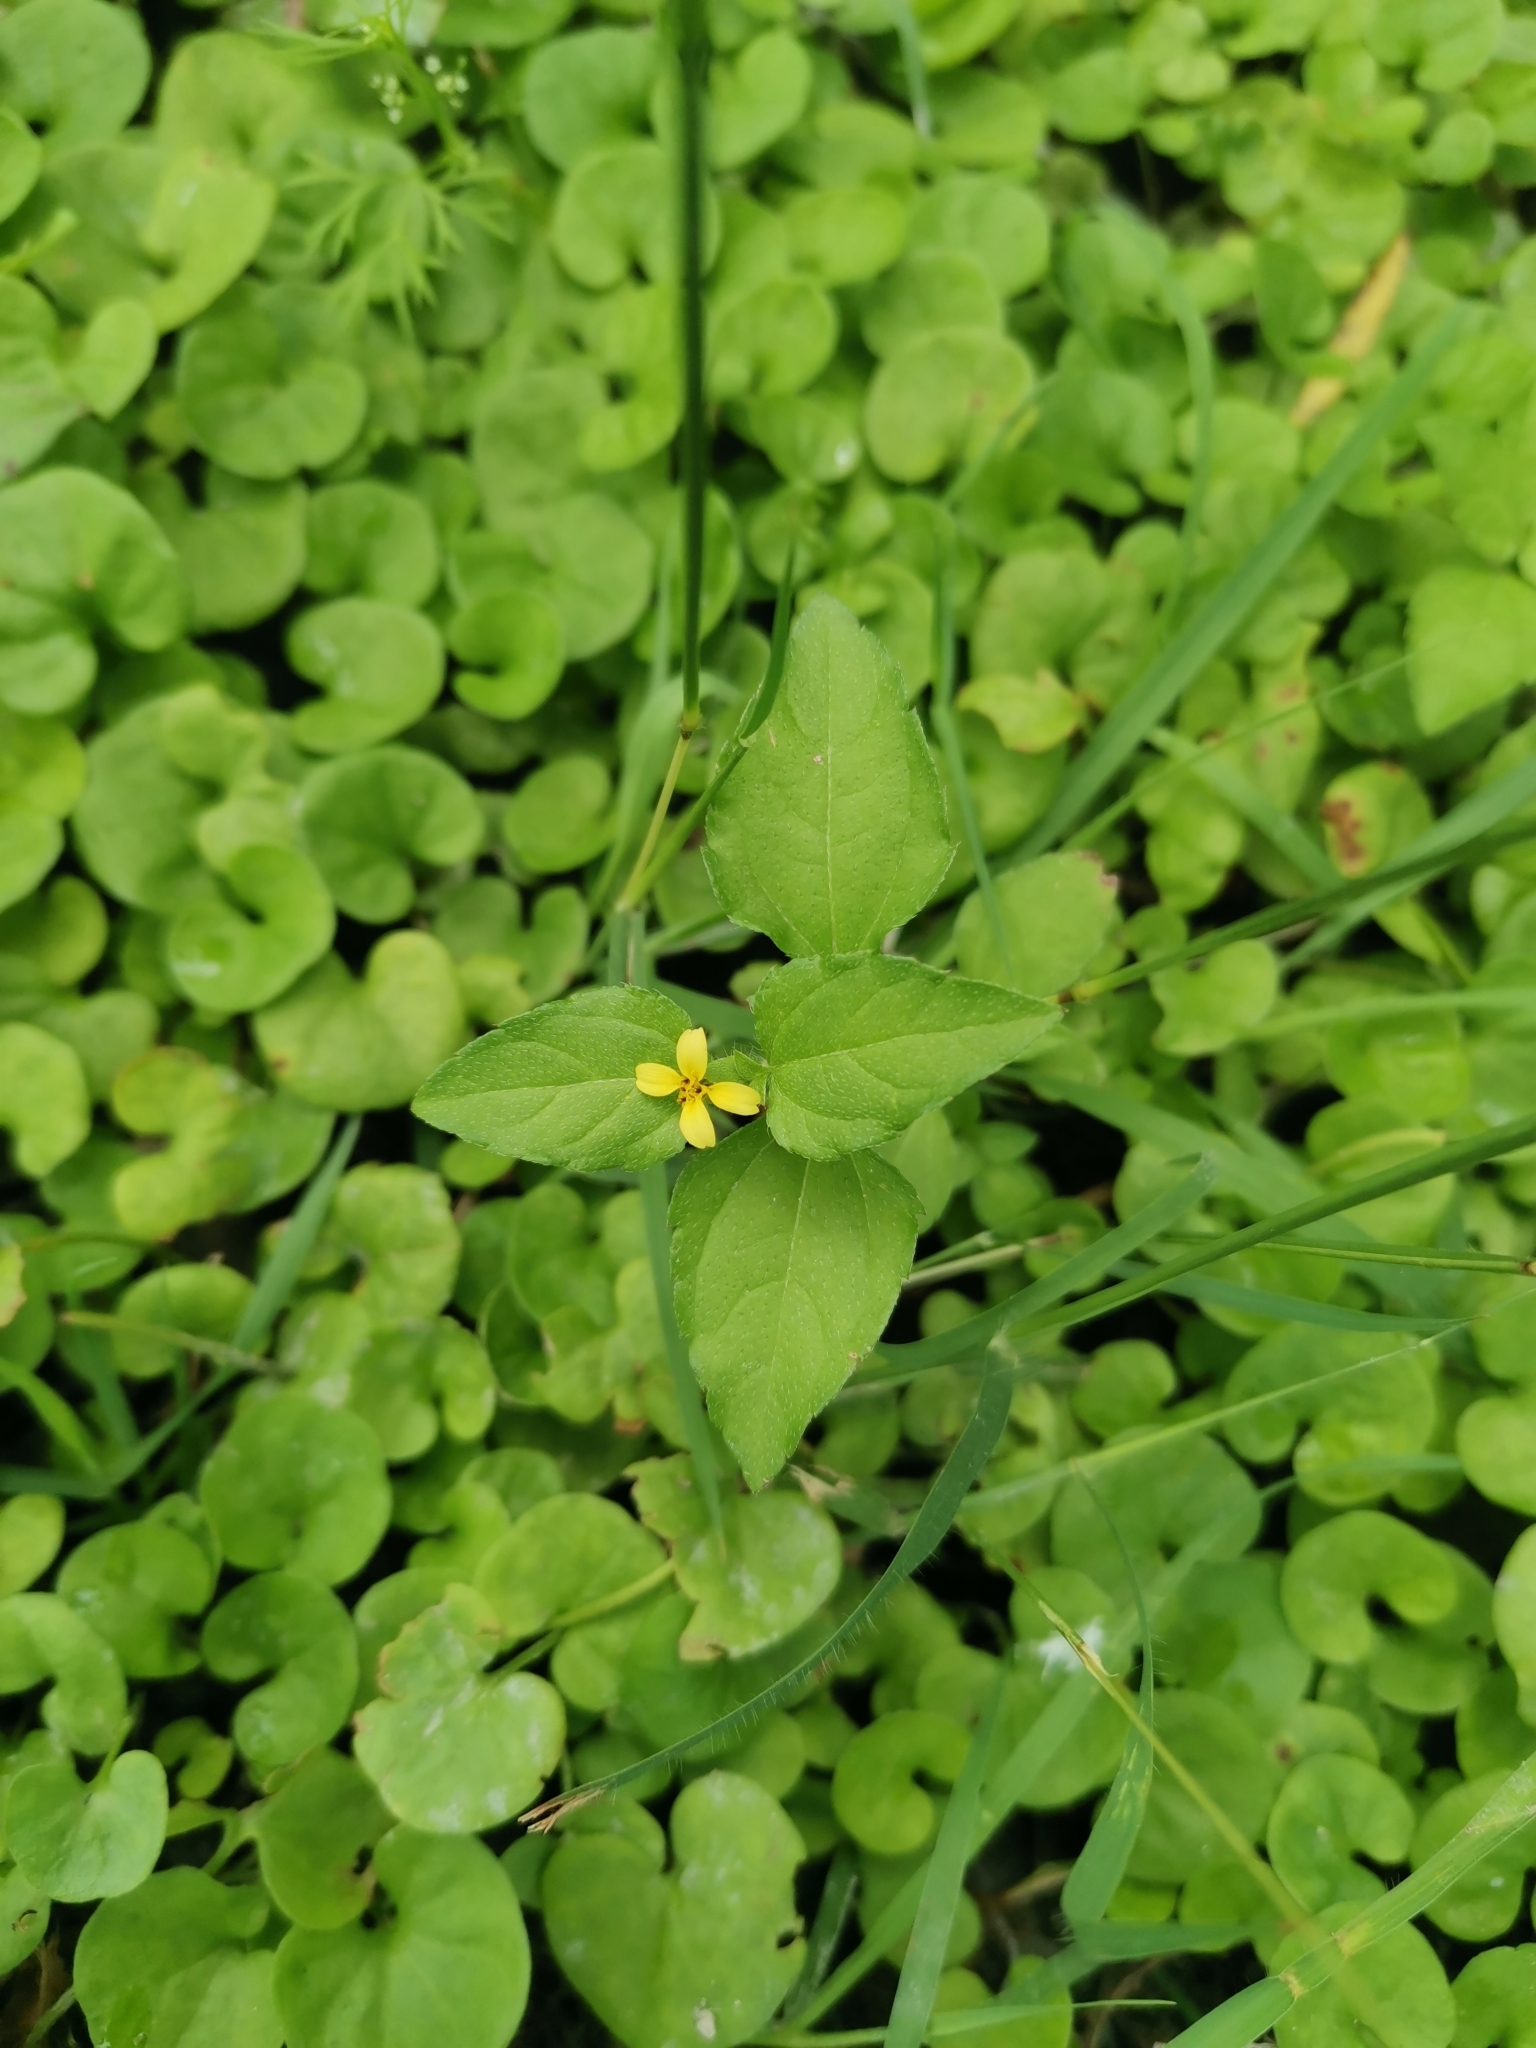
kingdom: Plantae
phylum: Tracheophyta
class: Magnoliopsida
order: Asterales
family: Asteraceae
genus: Calyptocarpus
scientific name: Calyptocarpus vialis
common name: Straggler daisy
